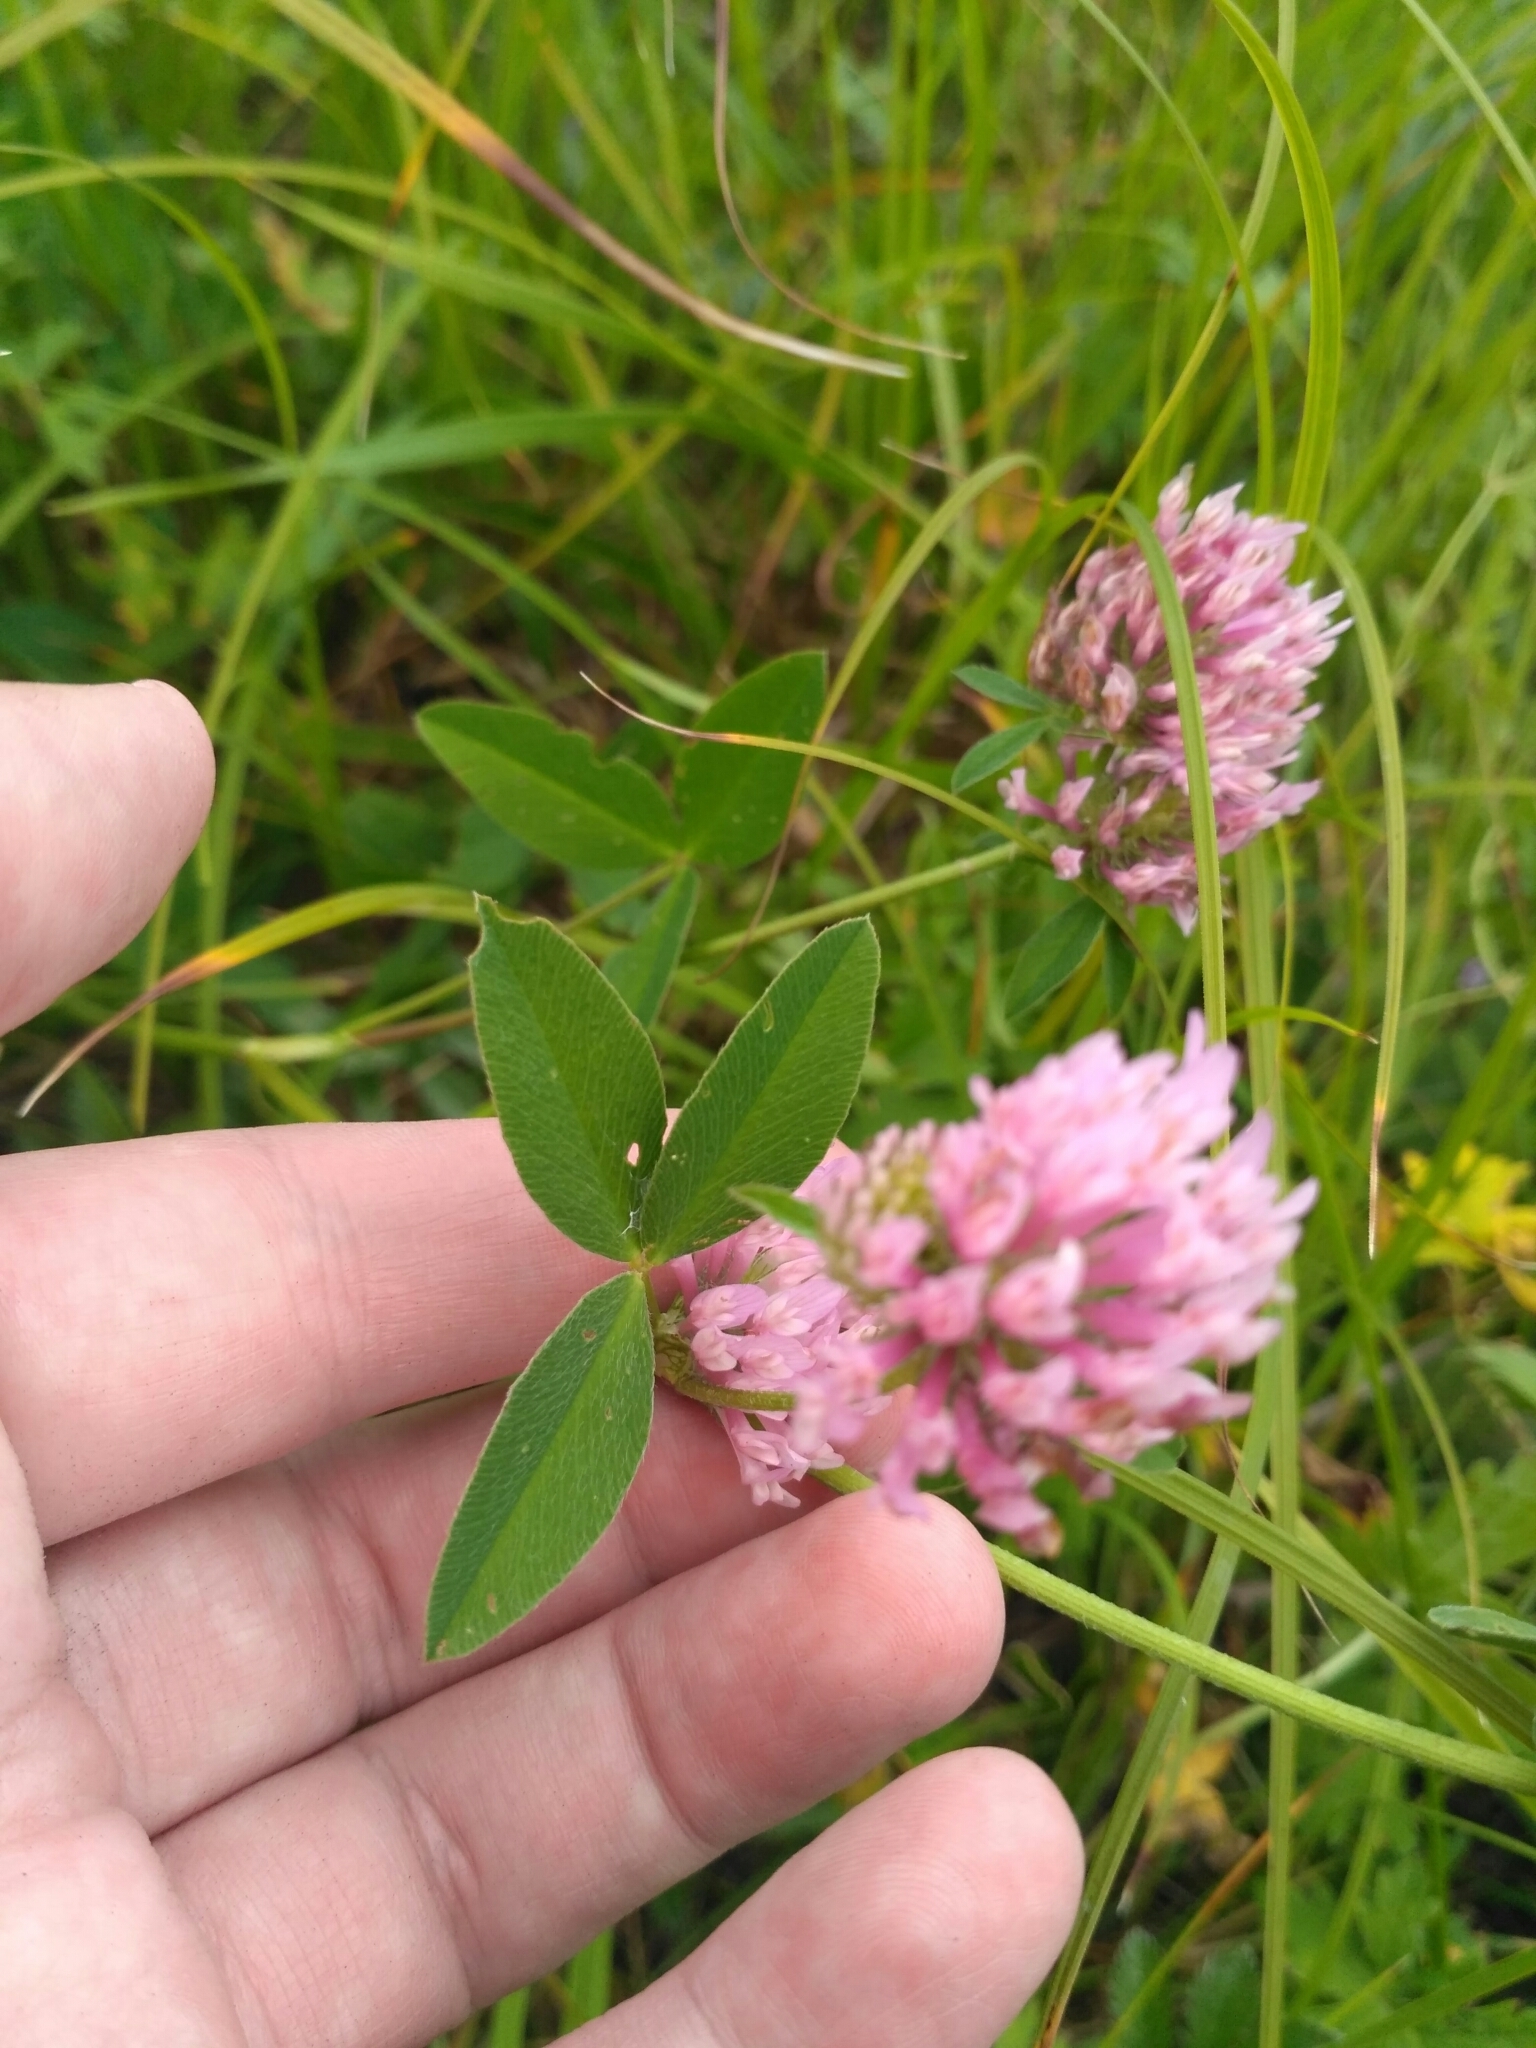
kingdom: Plantae
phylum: Tracheophyta
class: Magnoliopsida
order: Fabales
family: Fabaceae
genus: Trifolium
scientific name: Trifolium medium
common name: Zigzag clover
